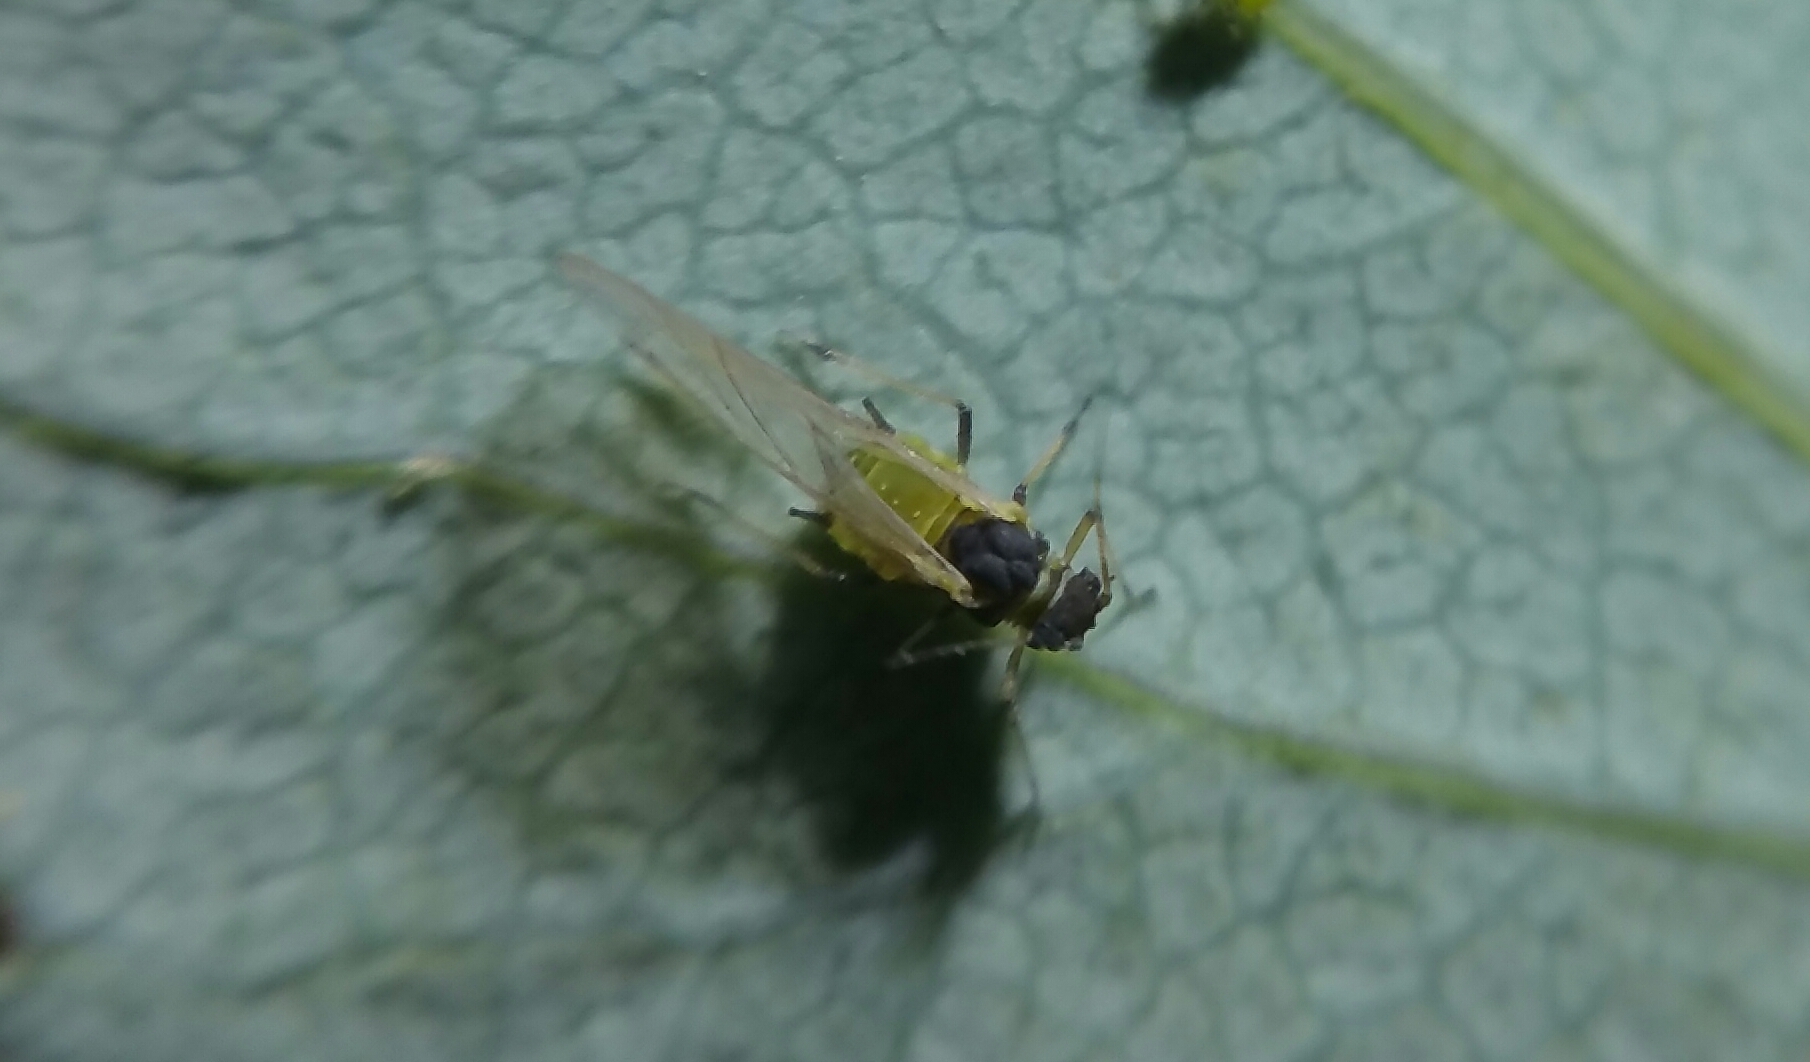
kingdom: Animalia
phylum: Arthropoda
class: Insecta
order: Hemiptera
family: Aphididae
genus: Aphis
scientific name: Aphis spiraecola
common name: Spirea aphid
